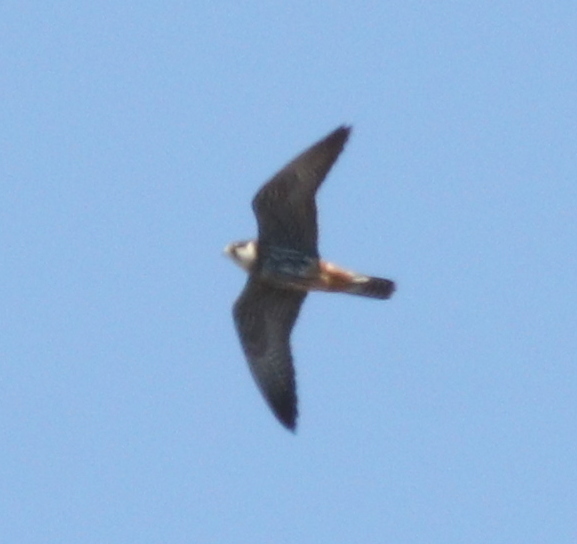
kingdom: Animalia
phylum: Chordata
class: Aves
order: Falconiformes
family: Falconidae
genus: Falco
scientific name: Falco subbuteo
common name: Eurasian hobby
